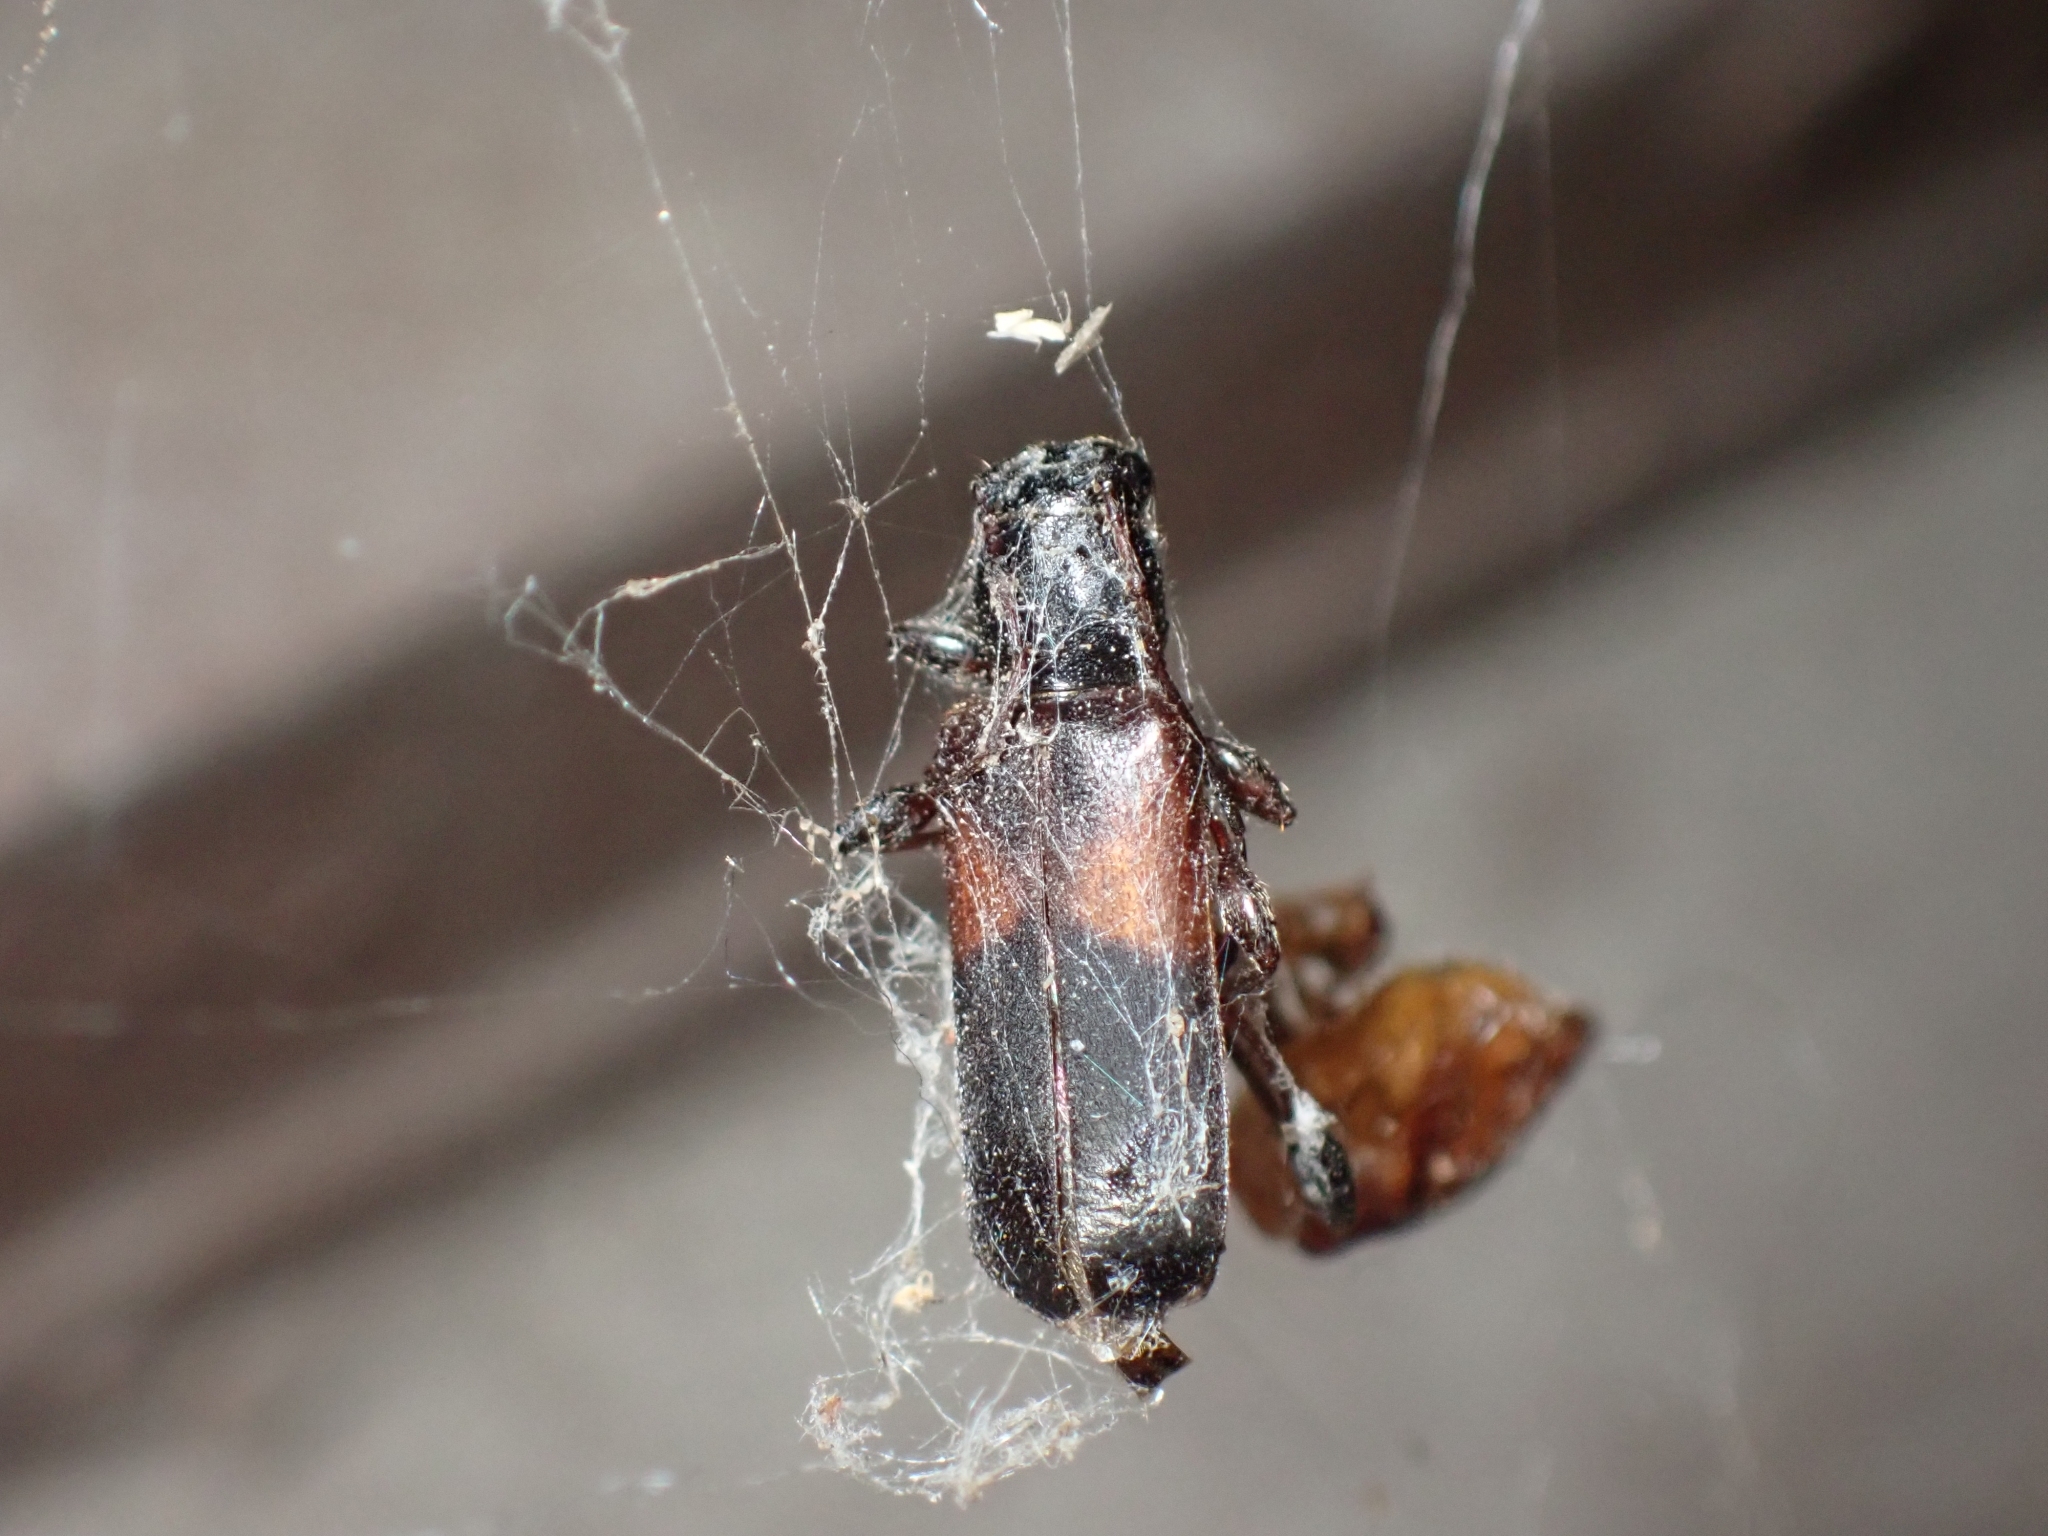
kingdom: Animalia
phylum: Arthropoda
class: Insecta
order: Coleoptera
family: Cerambycidae
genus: Phymatodes
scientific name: Phymatodes dimidiatus
